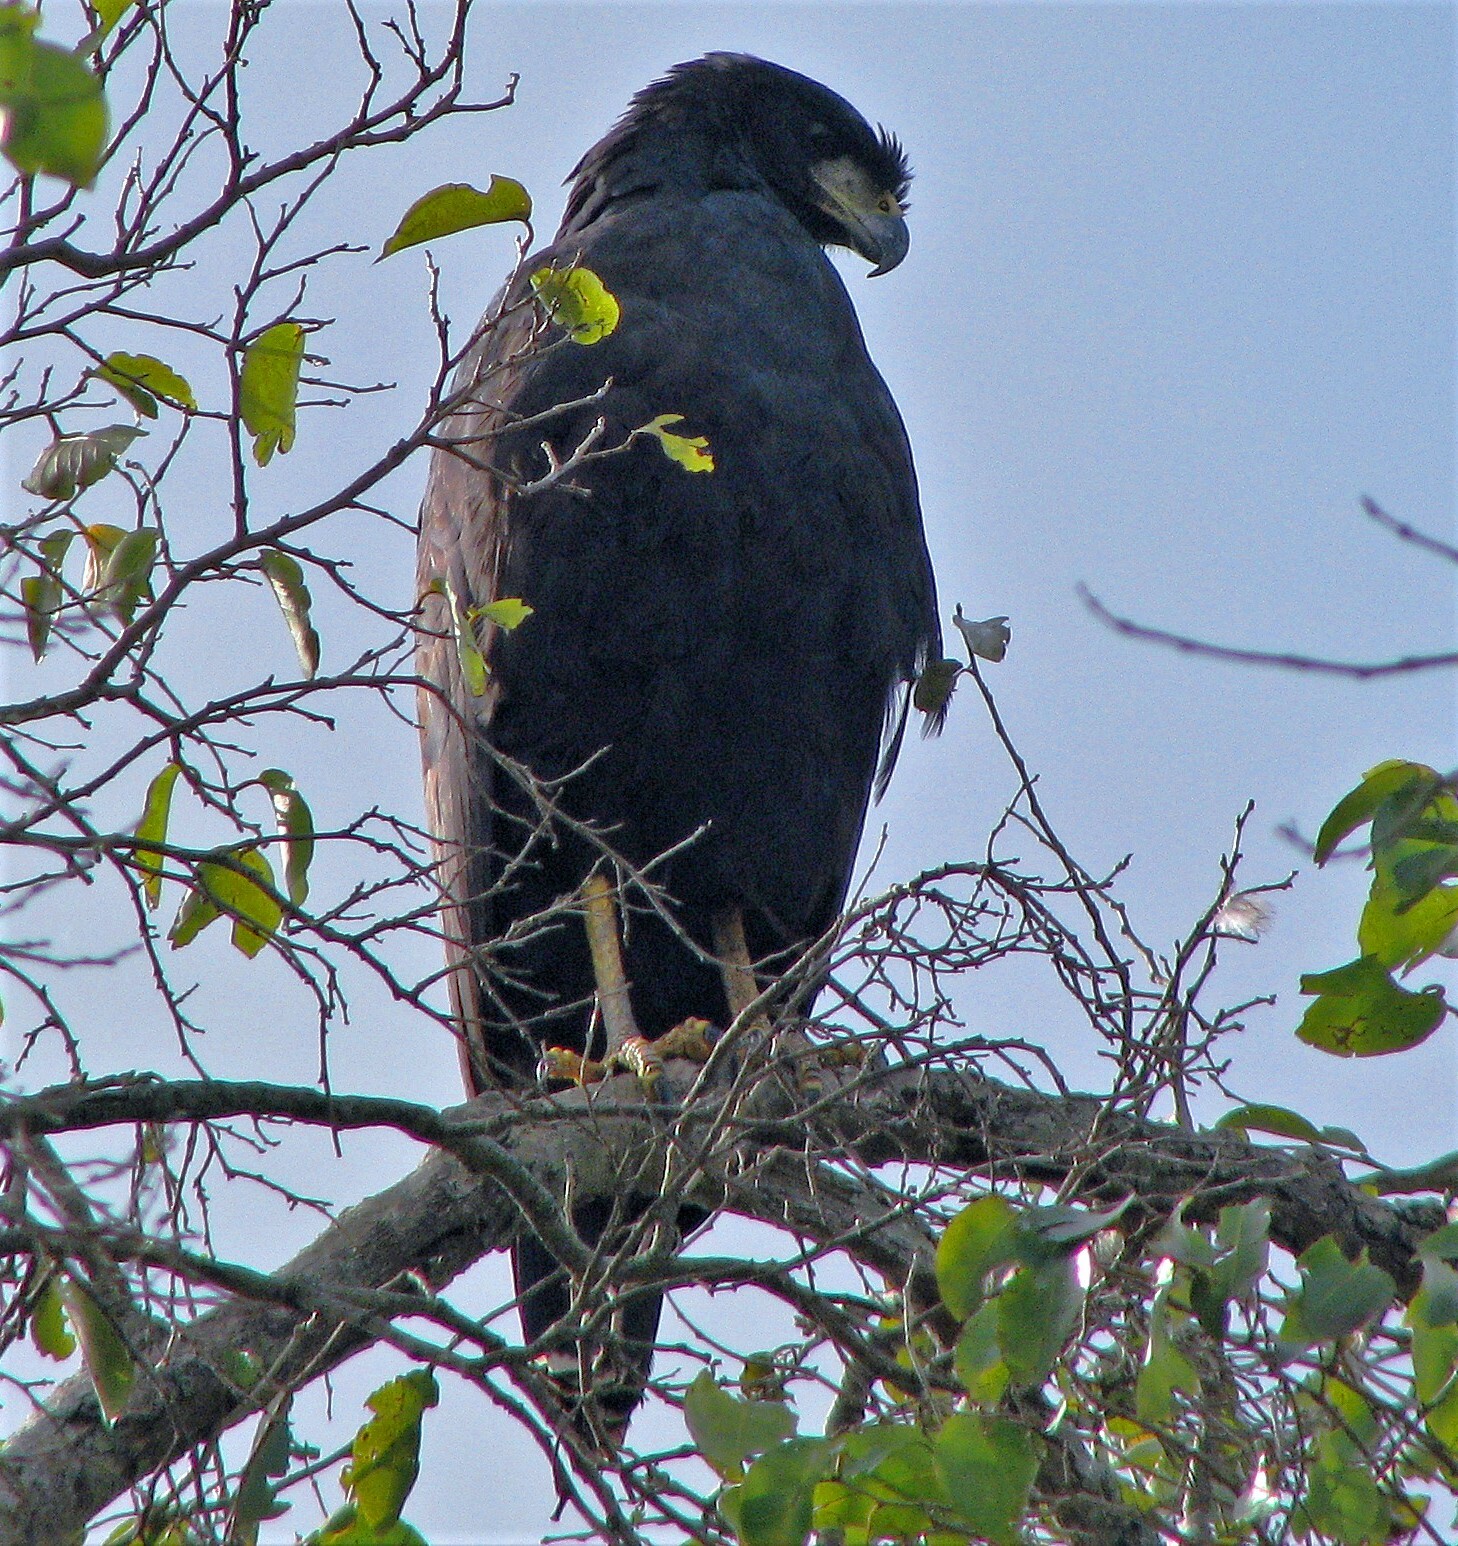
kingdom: Animalia
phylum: Chordata
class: Aves
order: Accipitriformes
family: Accipitridae
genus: Buteogallus
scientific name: Buteogallus urubitinga
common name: Great black hawk
